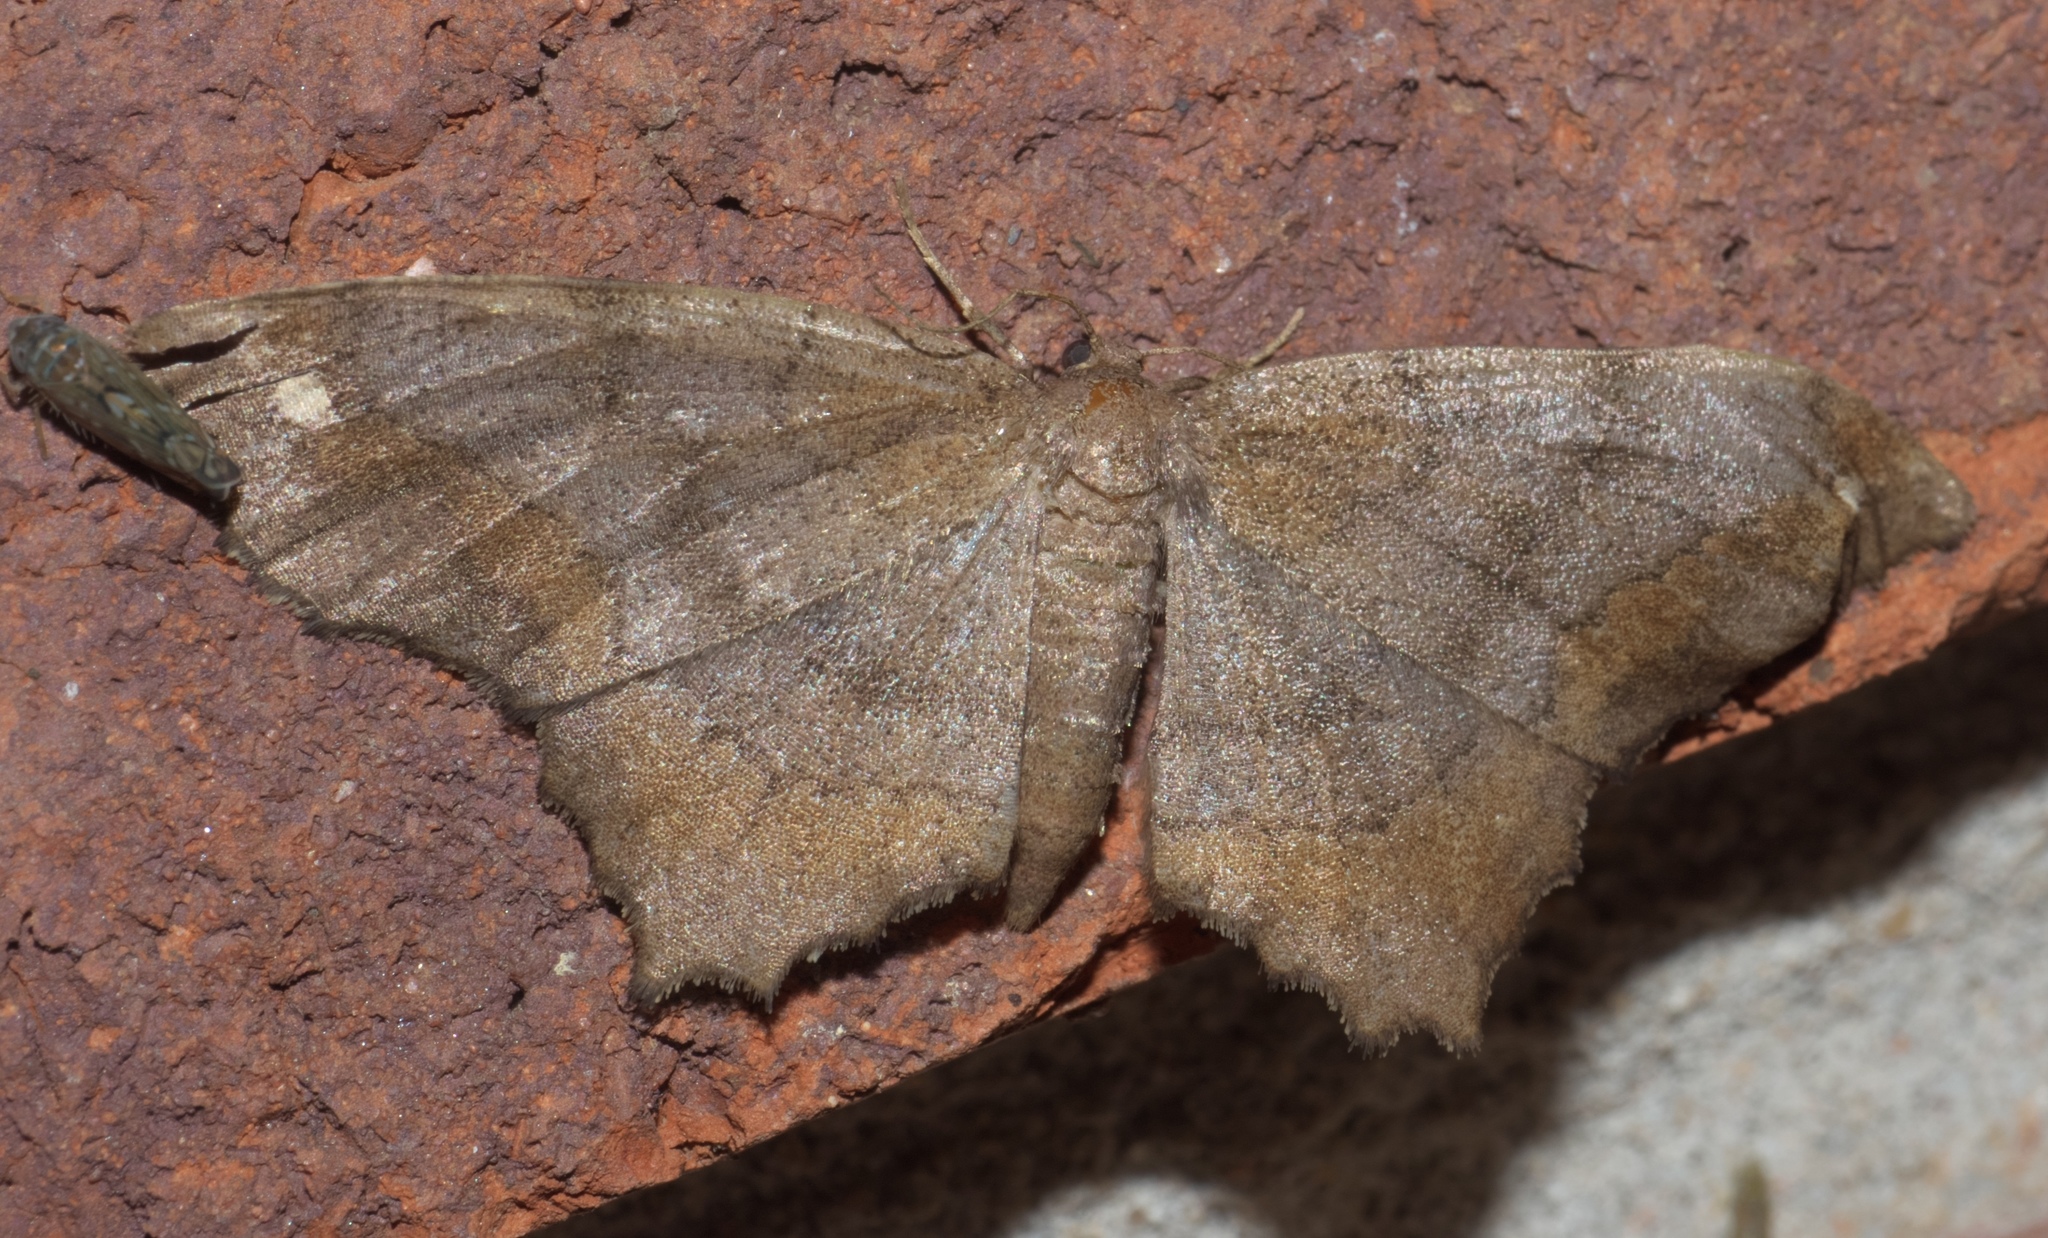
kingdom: Animalia
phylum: Arthropoda
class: Insecta
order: Lepidoptera
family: Geometridae
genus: Hypagyrtis
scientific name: Hypagyrtis esther
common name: Esther moth
